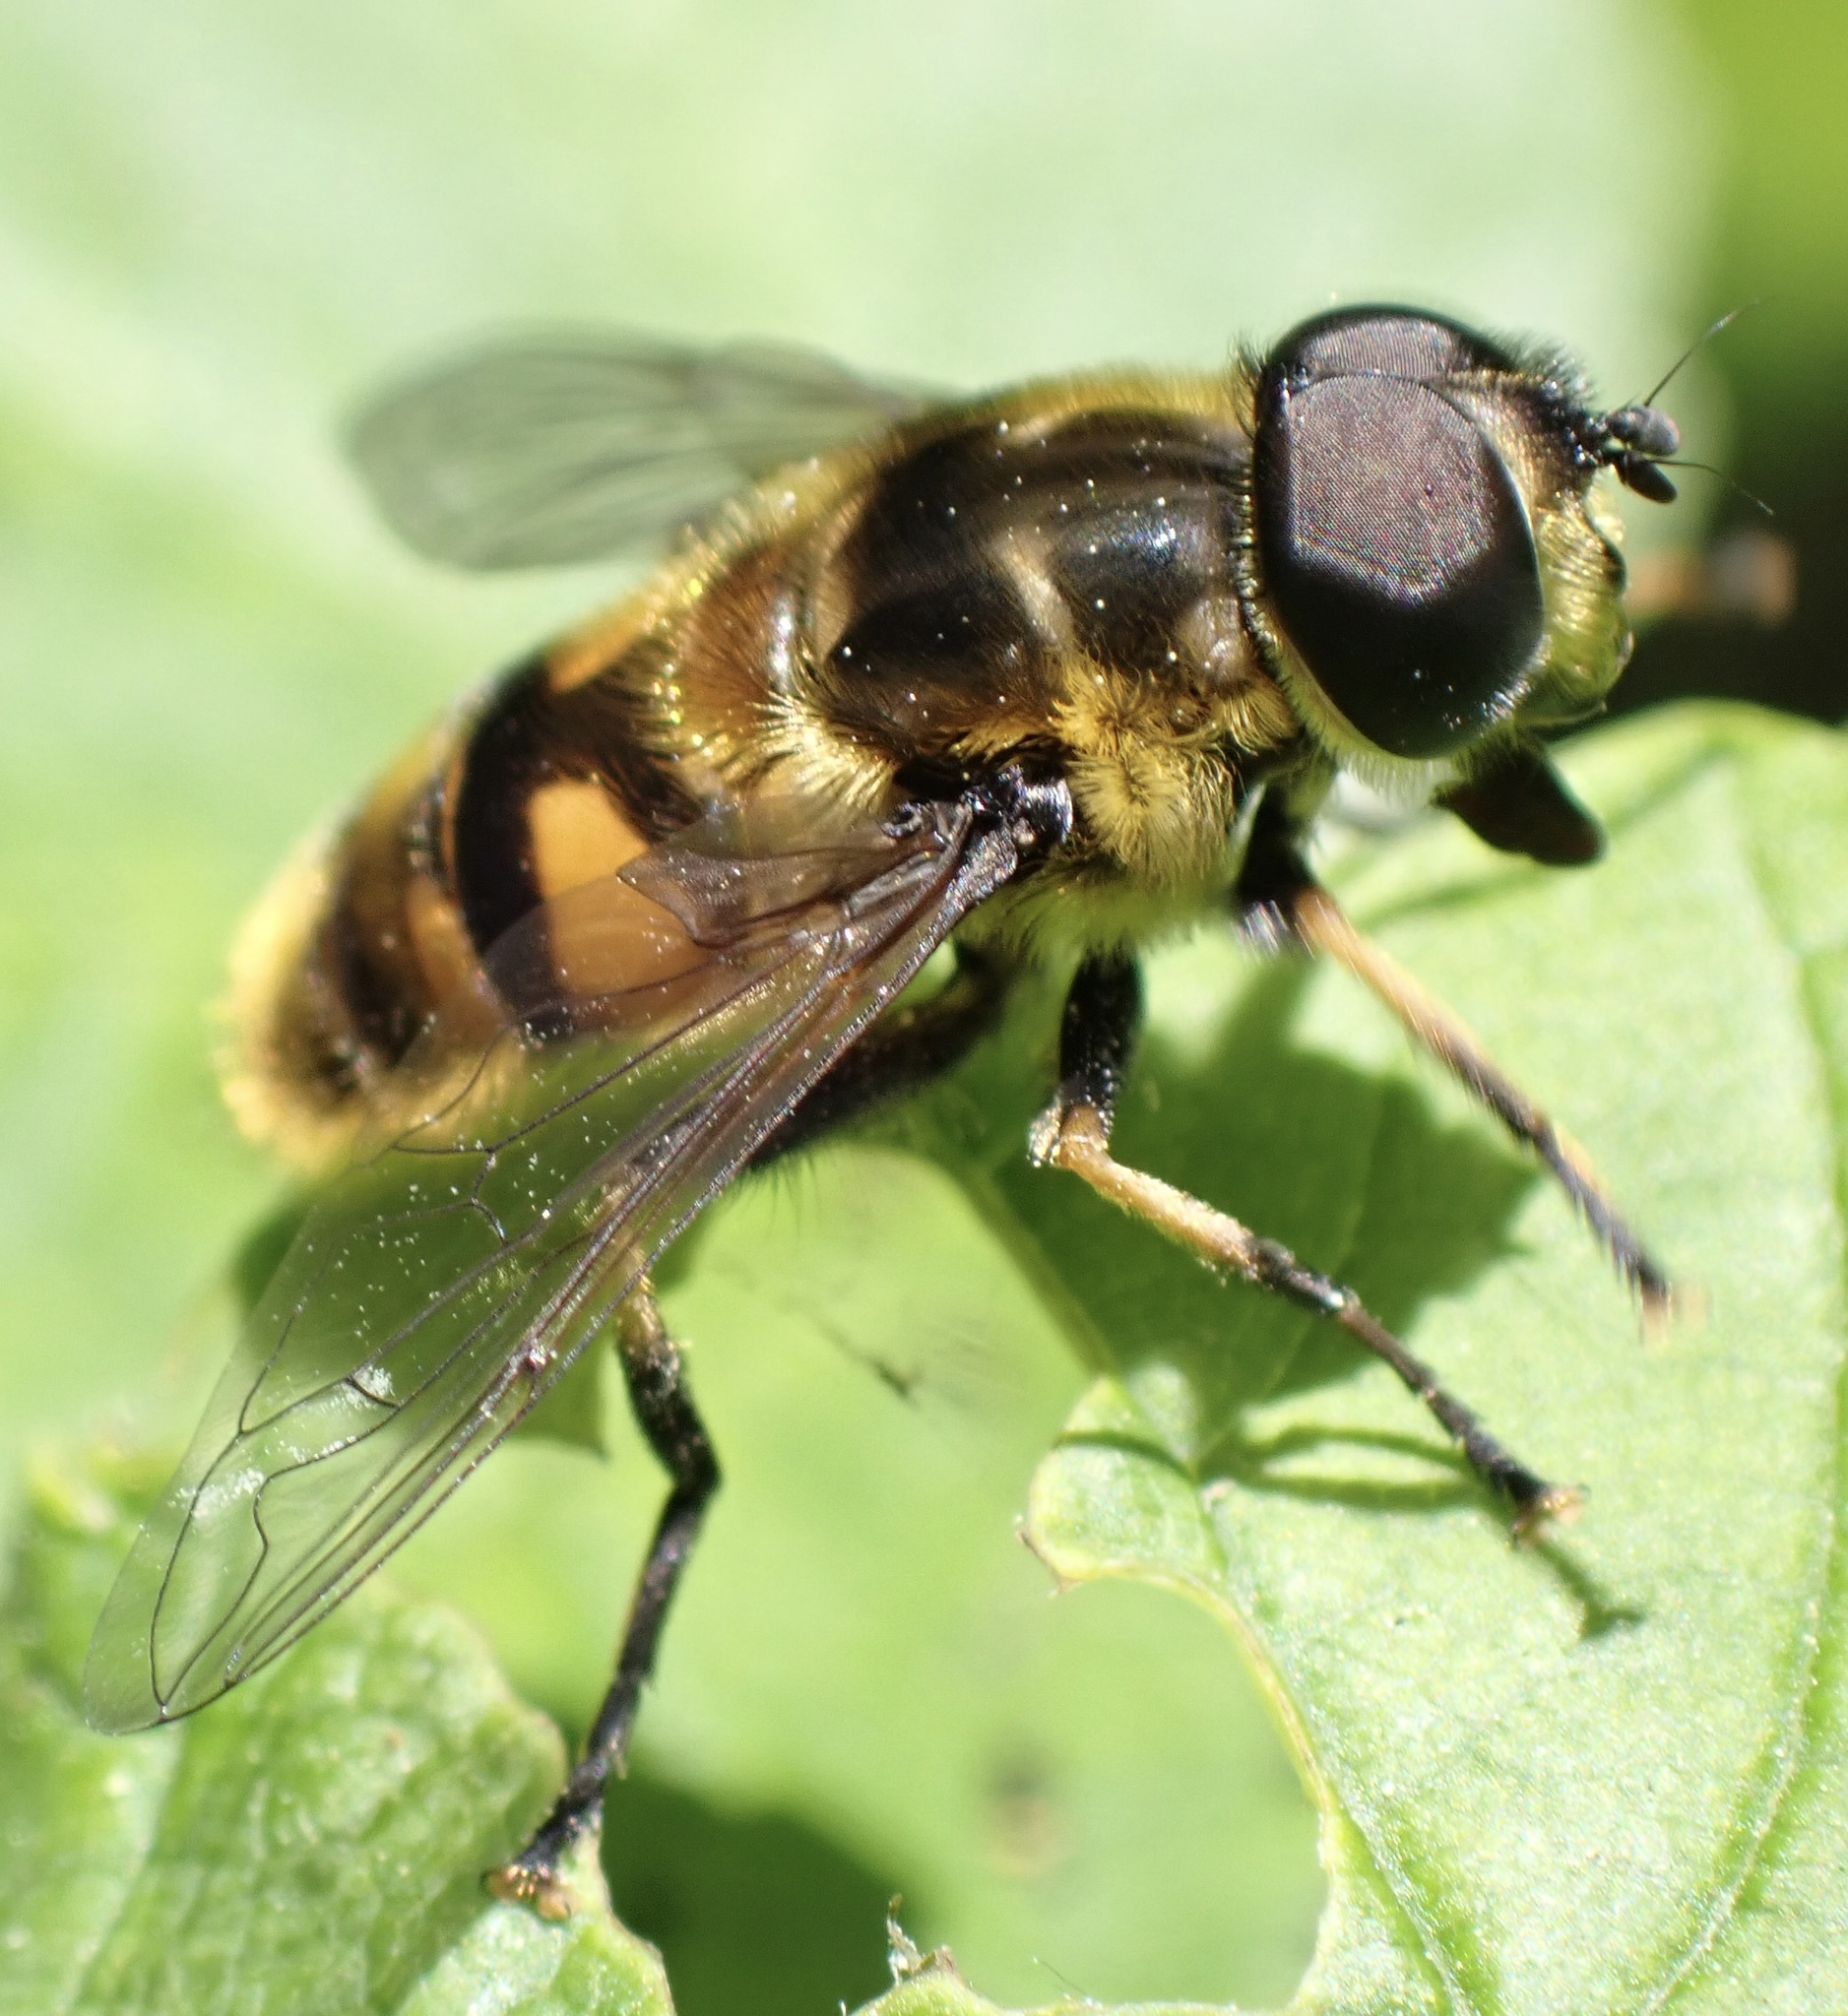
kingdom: Animalia
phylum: Arthropoda
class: Insecta
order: Diptera
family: Syrphidae
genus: Myathropa
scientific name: Myathropa florea
